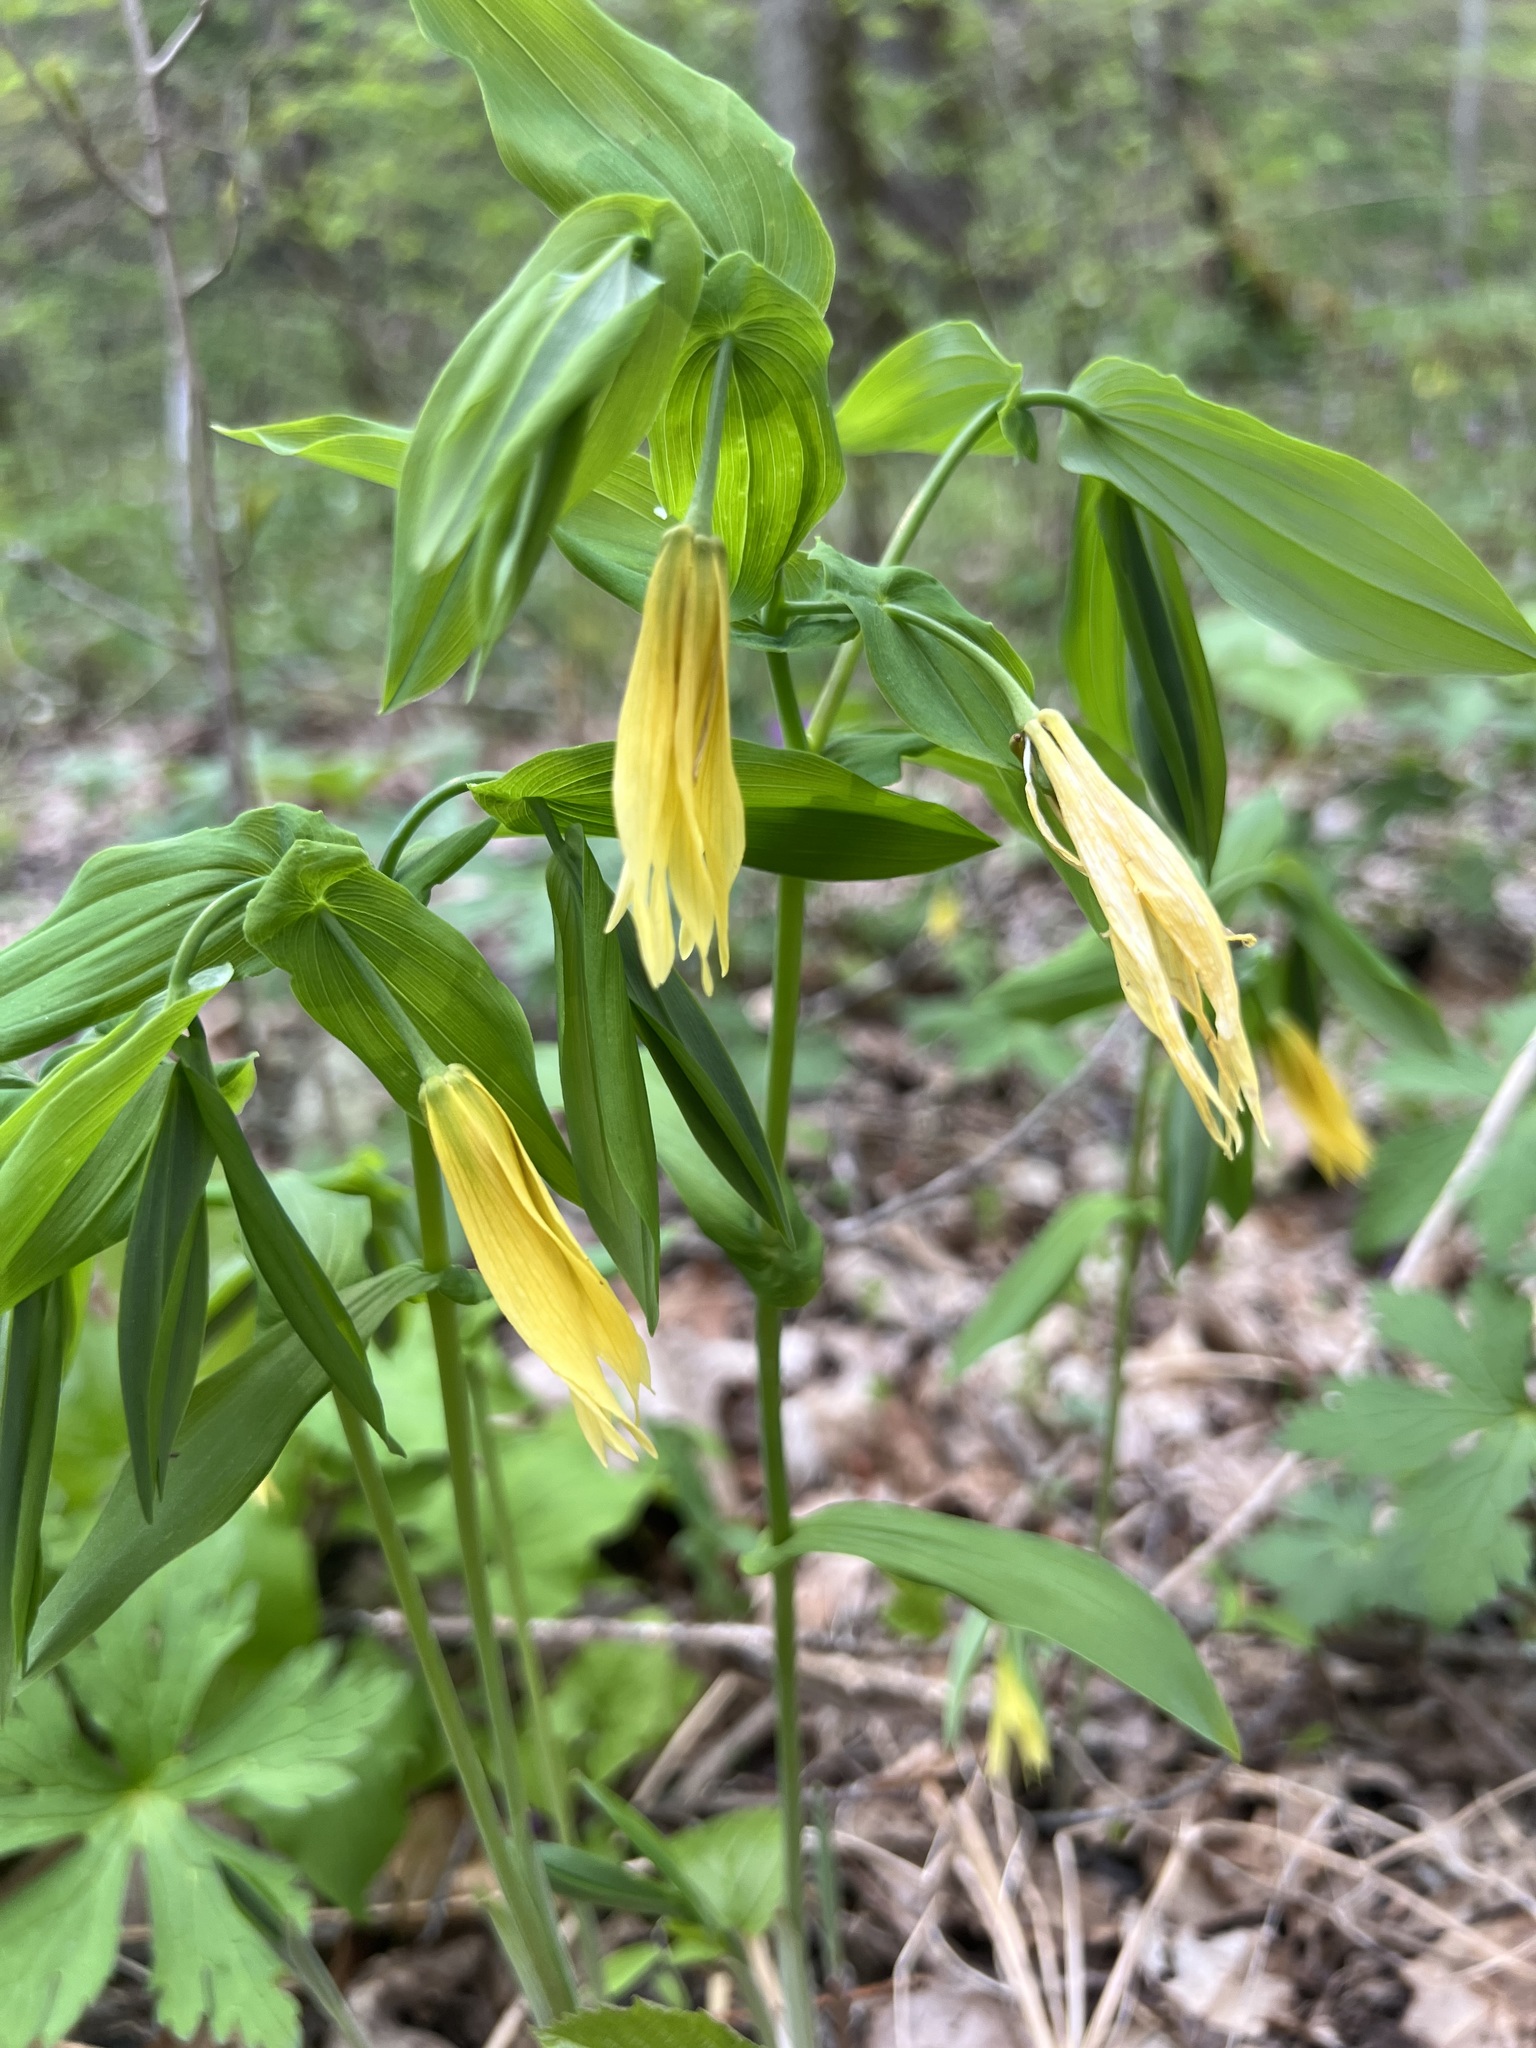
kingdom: Plantae
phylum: Tracheophyta
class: Liliopsida
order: Liliales
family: Colchicaceae
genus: Uvularia
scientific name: Uvularia grandiflora
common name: Bellwort
